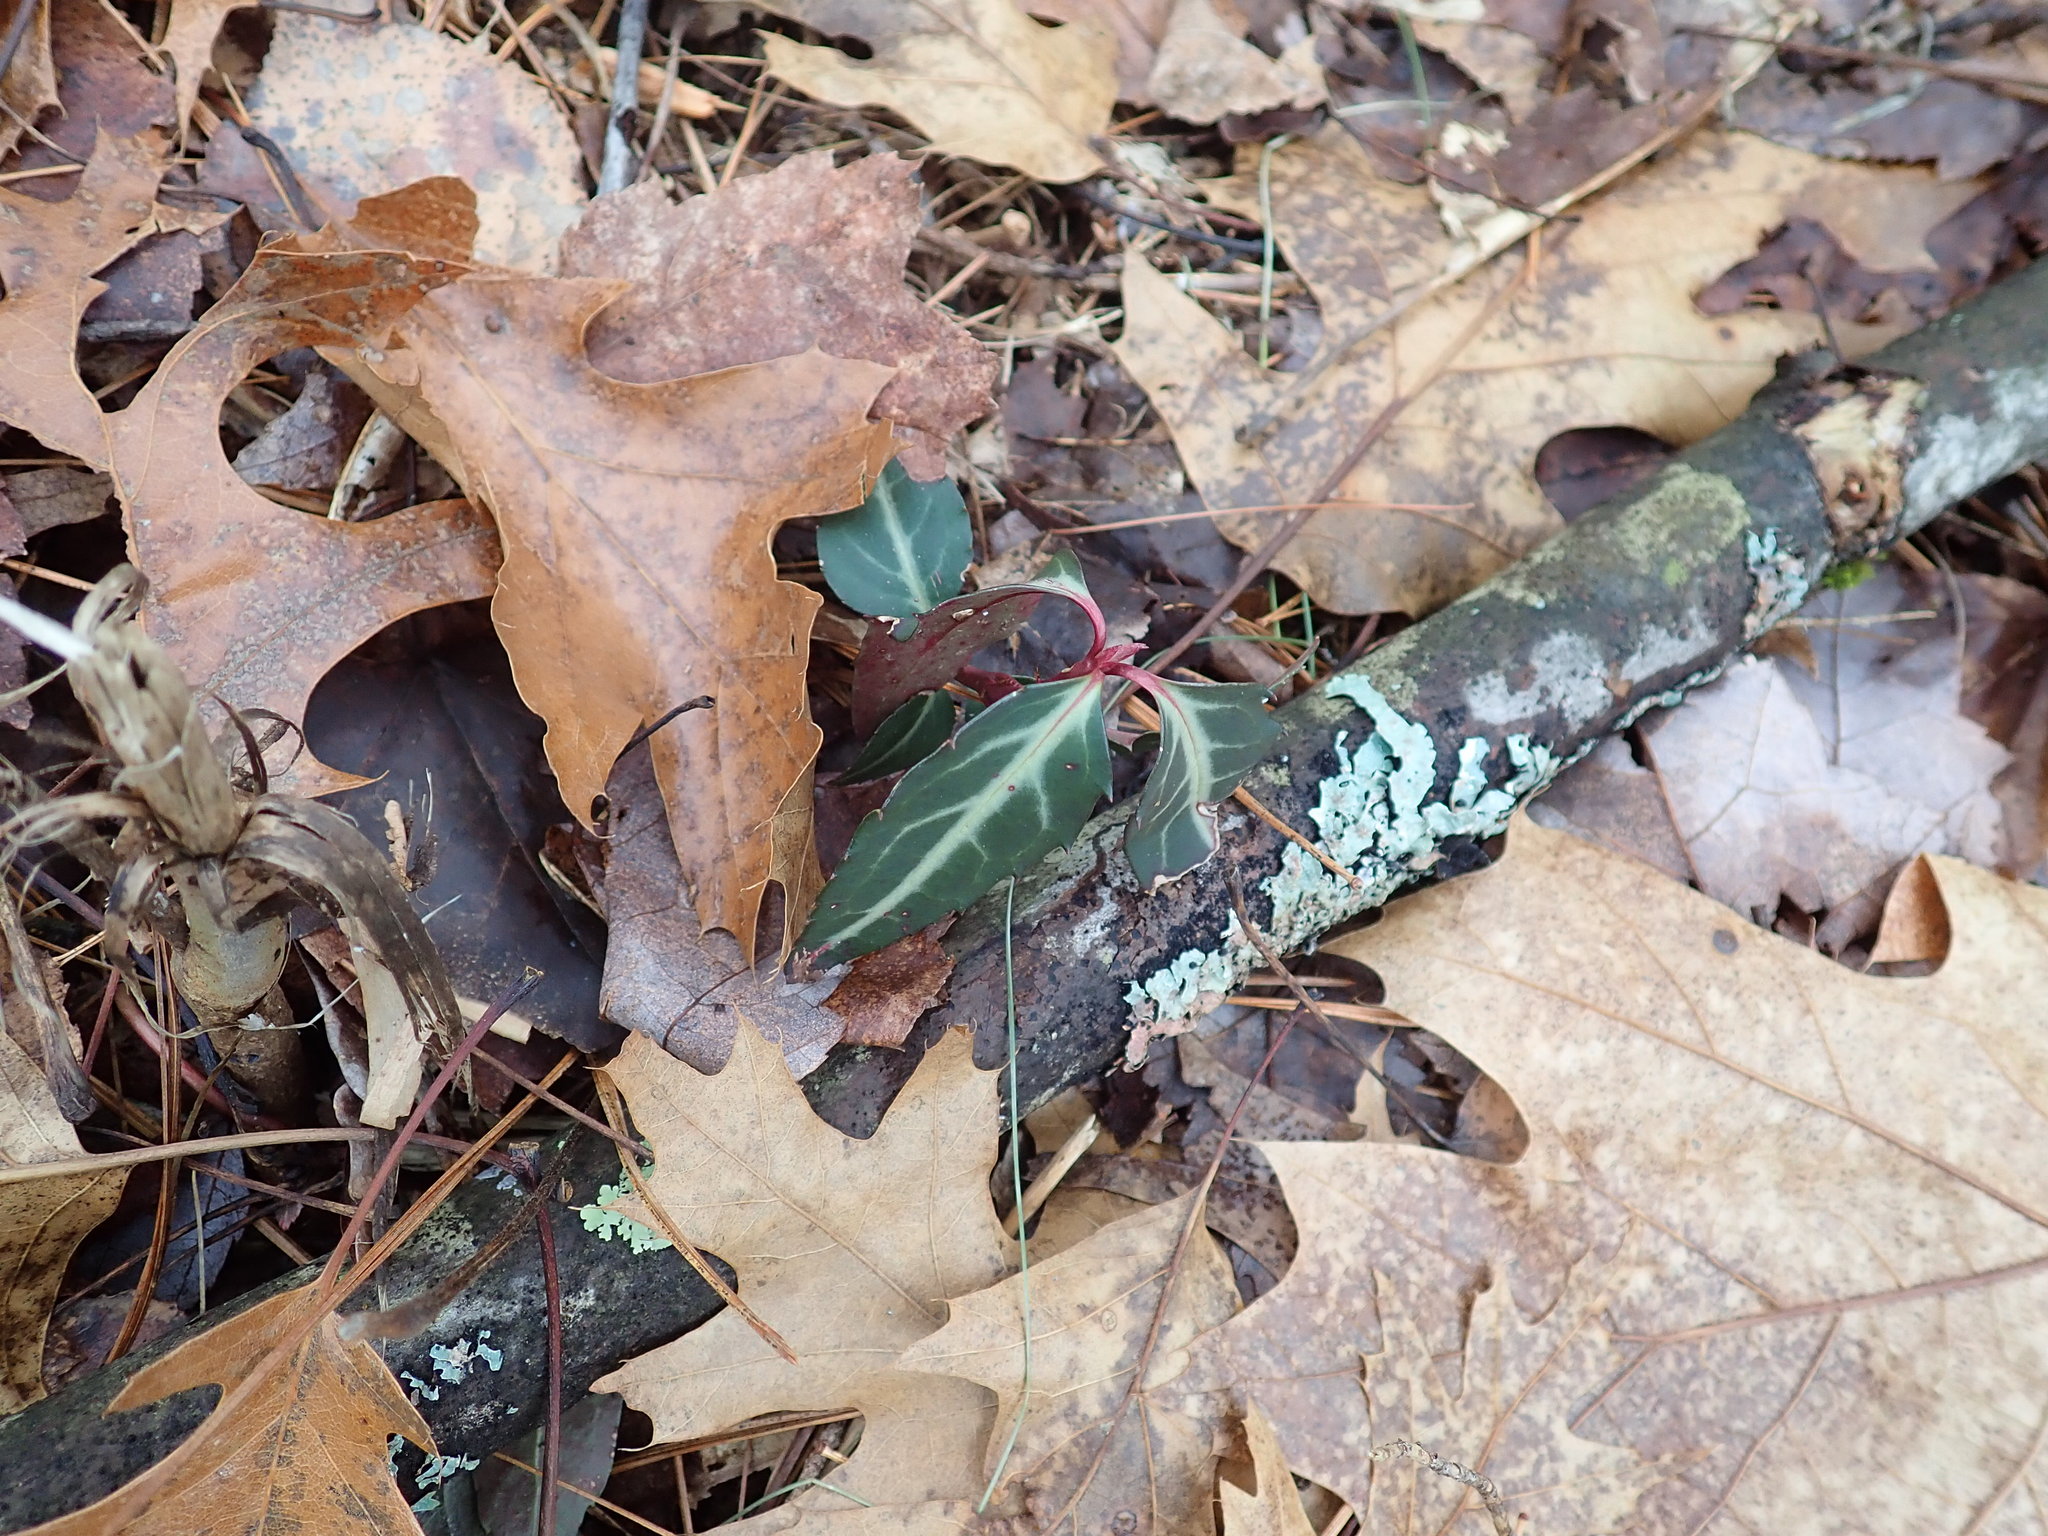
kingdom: Plantae
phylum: Tracheophyta
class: Magnoliopsida
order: Ericales
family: Ericaceae
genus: Chimaphila
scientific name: Chimaphila maculata
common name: Spotted pipsissewa
